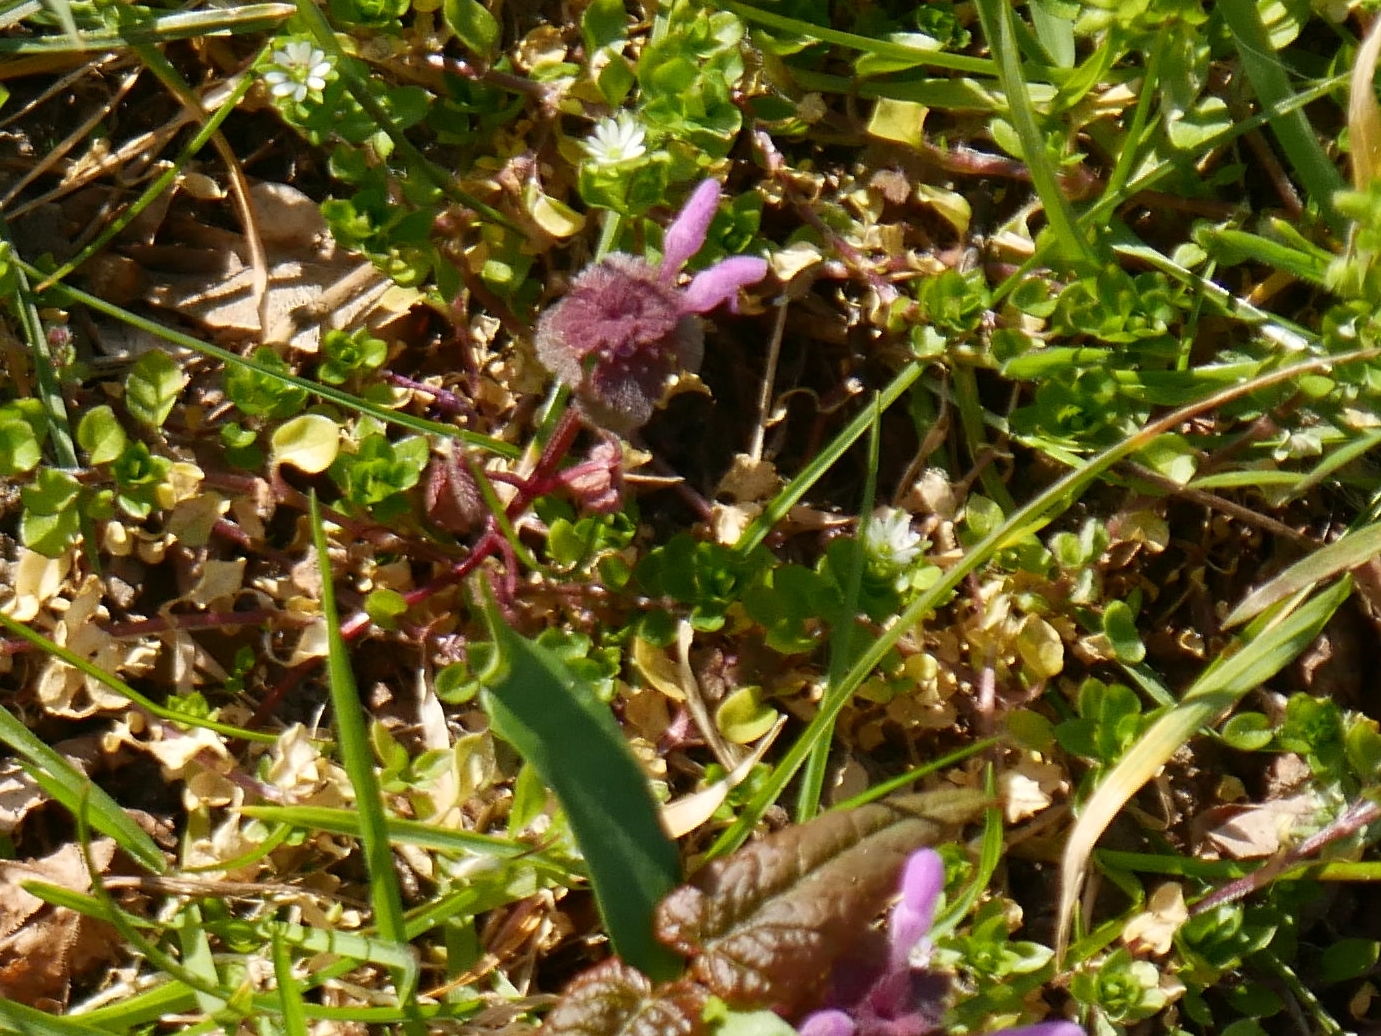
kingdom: Plantae
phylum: Tracheophyta
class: Magnoliopsida
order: Lamiales
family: Lamiaceae
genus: Lamium
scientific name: Lamium purpureum
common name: Red dead-nettle
